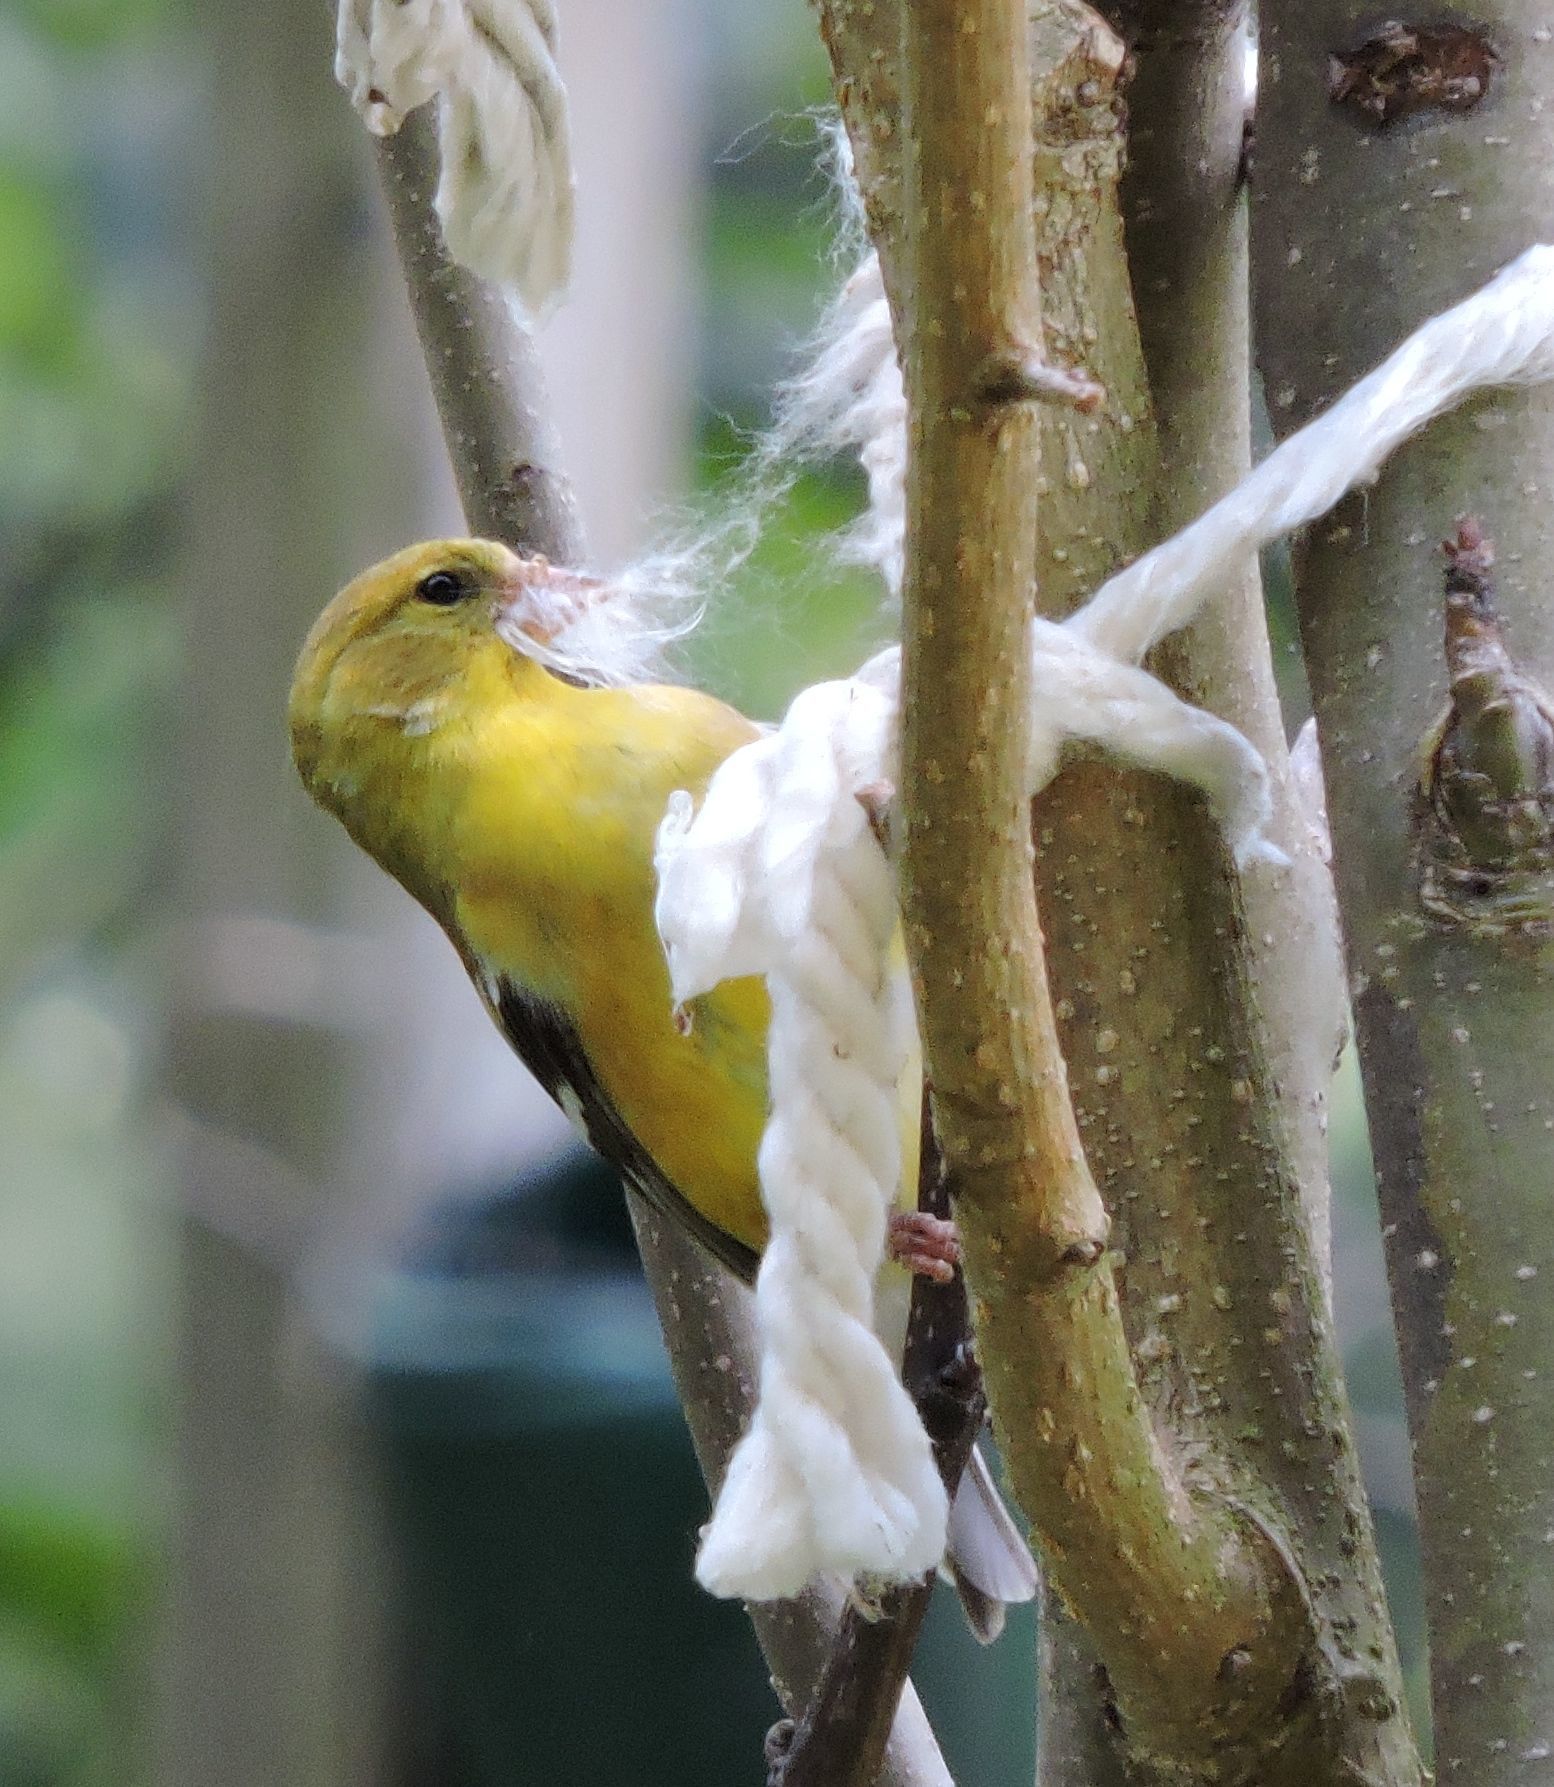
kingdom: Animalia
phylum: Chordata
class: Aves
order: Passeriformes
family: Fringillidae
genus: Spinus
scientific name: Spinus tristis
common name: American goldfinch
